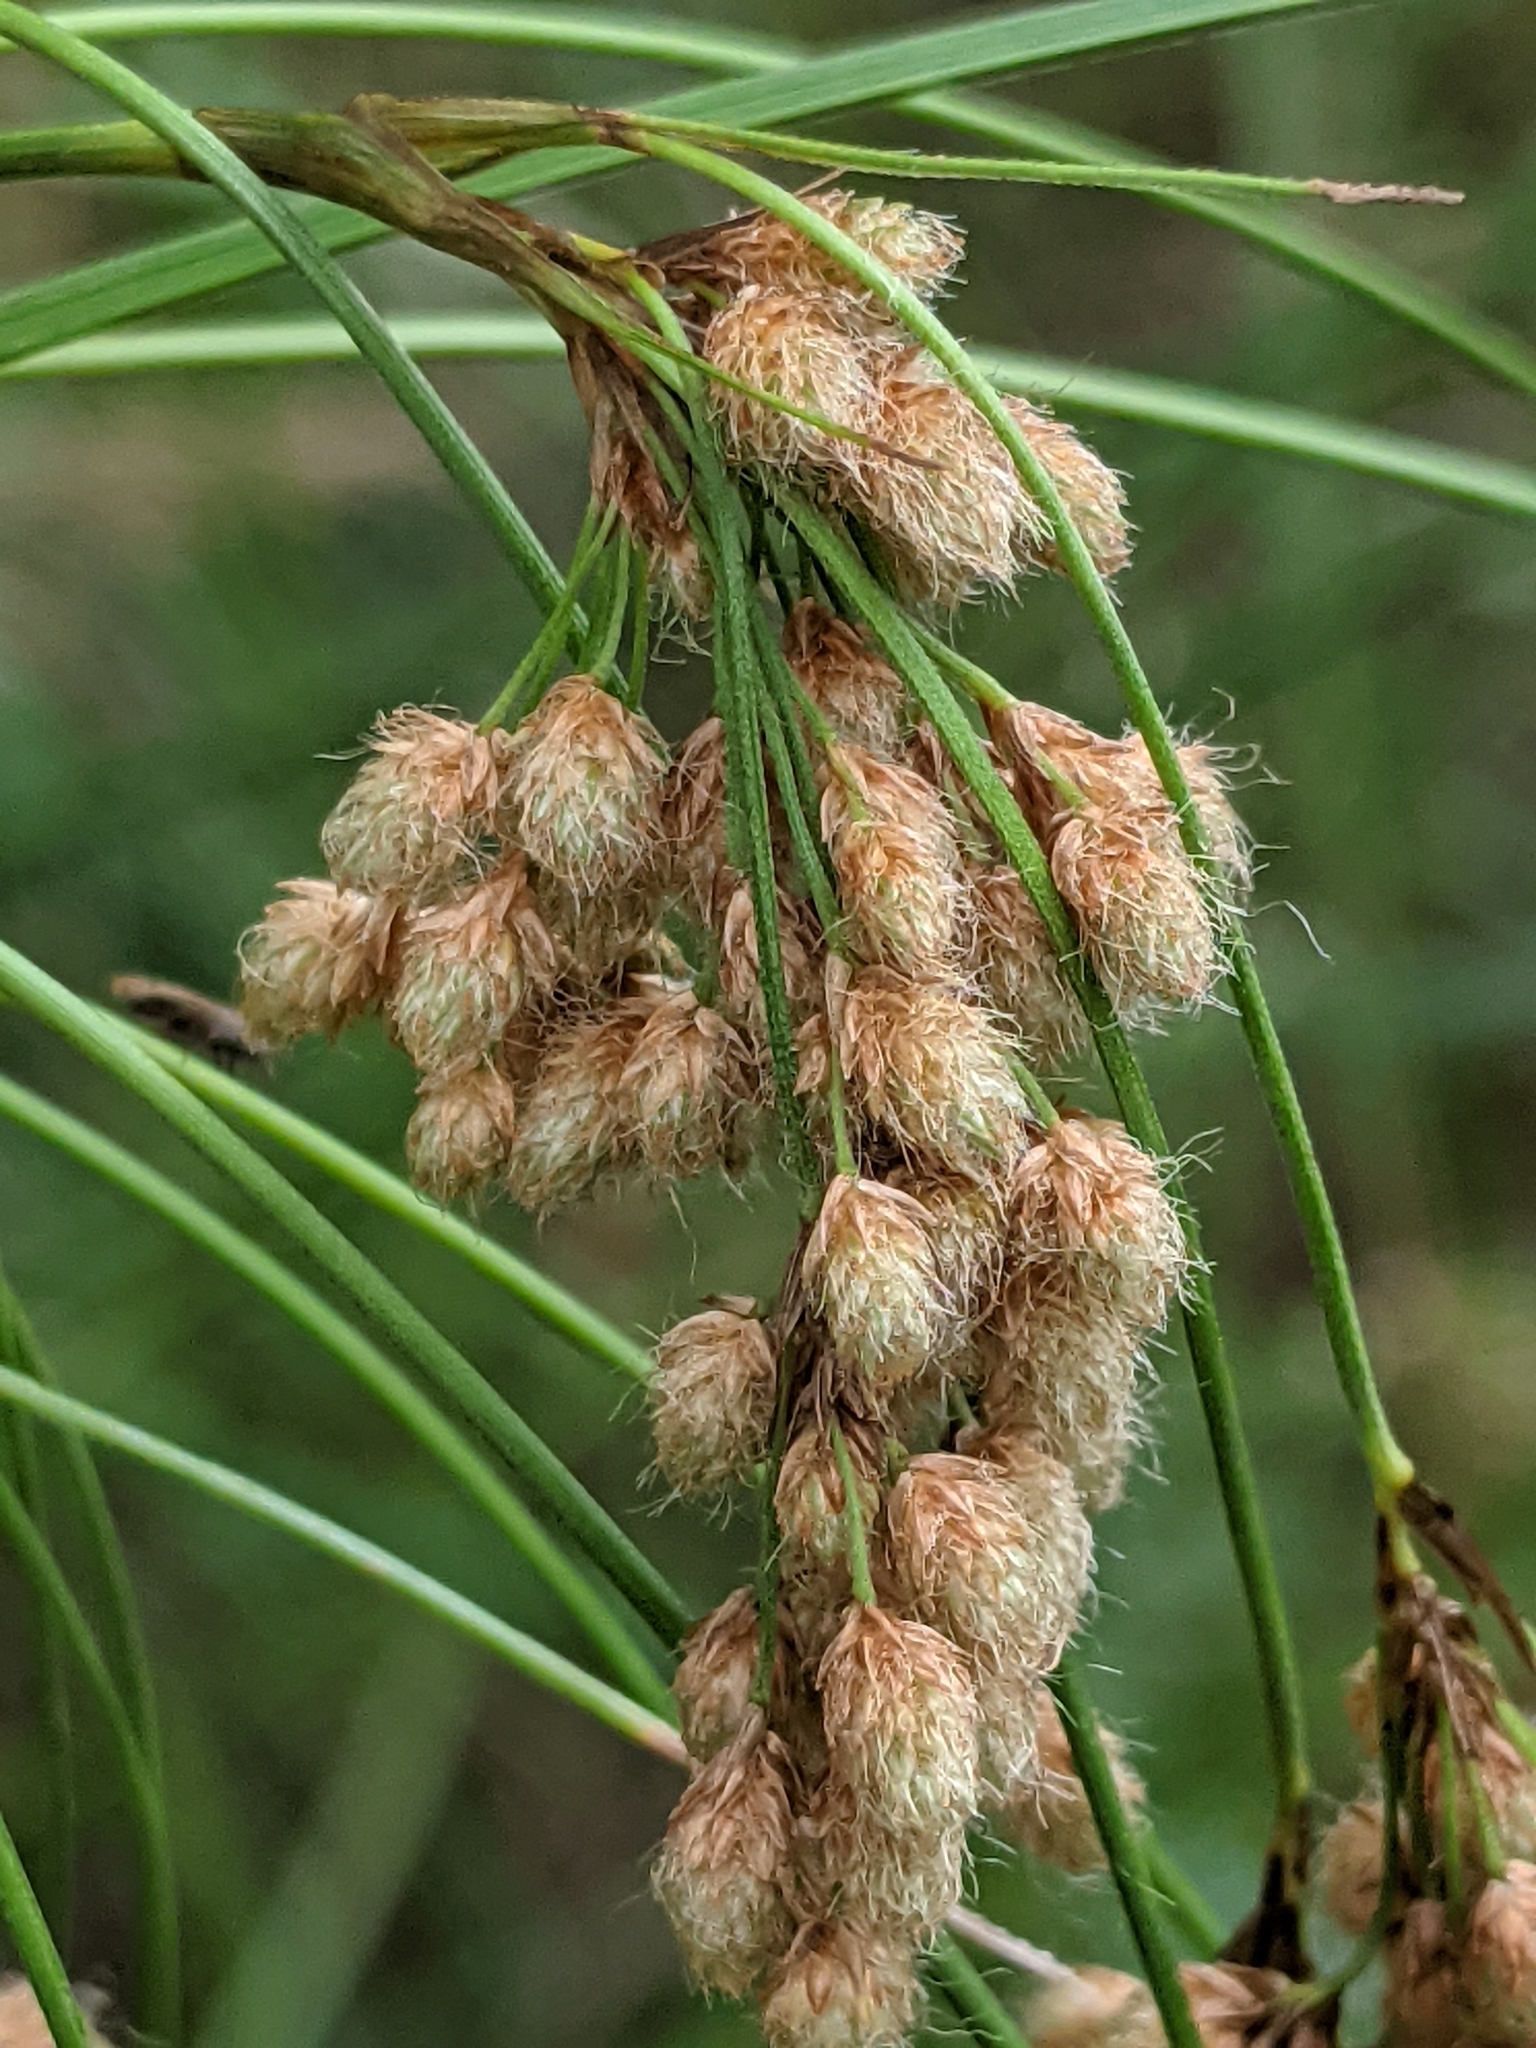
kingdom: Plantae
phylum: Tracheophyta
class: Liliopsida
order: Poales
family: Cyperaceae
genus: Scirpus
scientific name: Scirpus pedicellatus
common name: Pedicelled bulrush
